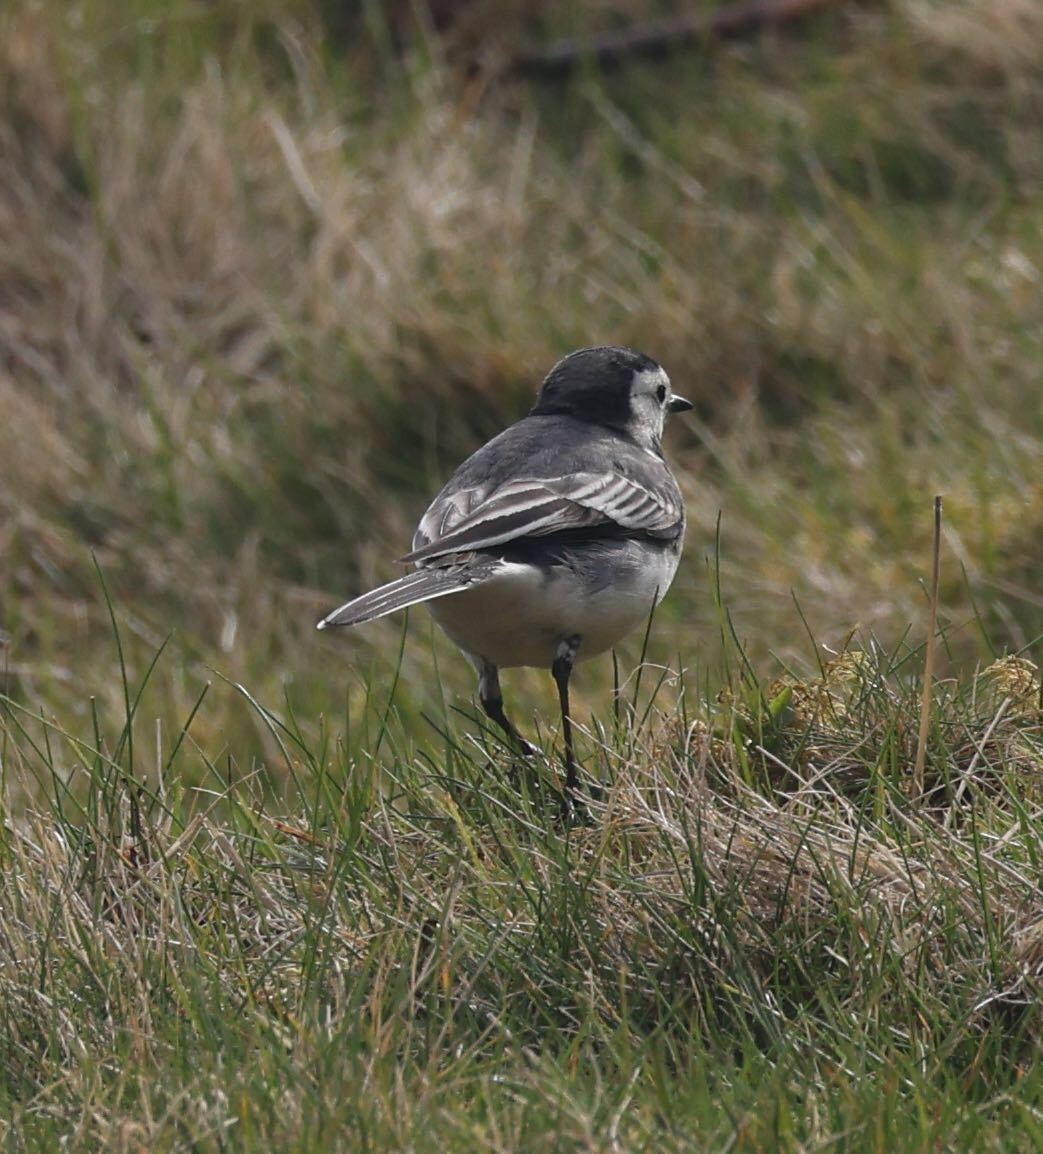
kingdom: Animalia
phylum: Chordata
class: Aves
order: Passeriformes
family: Motacillidae
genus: Motacilla
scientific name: Motacilla alba
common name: White wagtail
